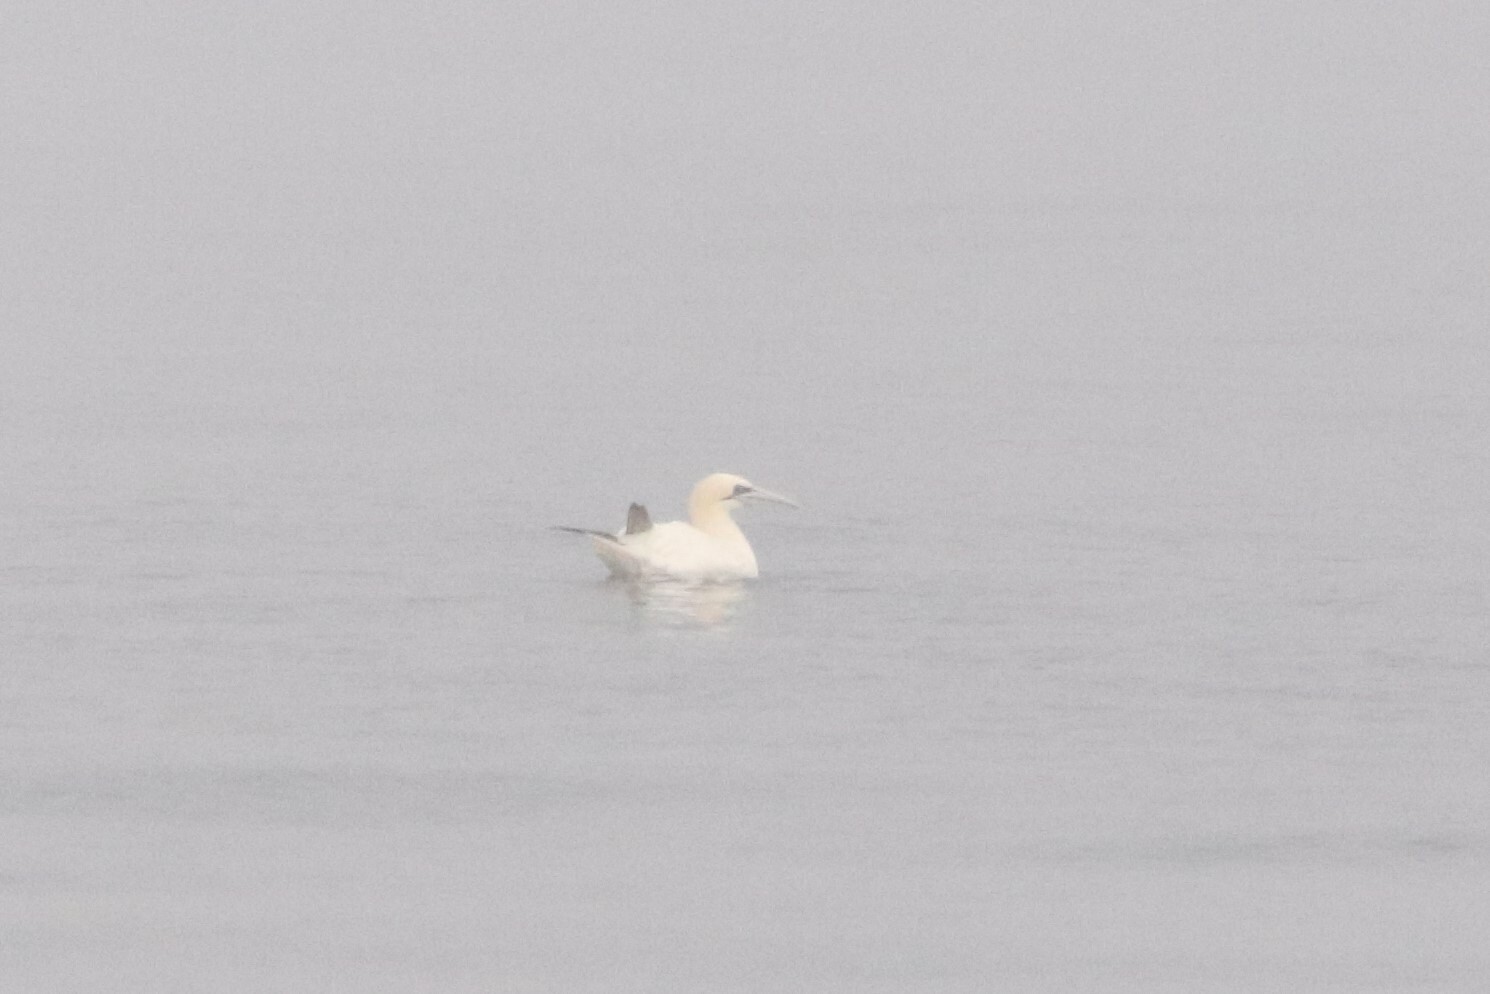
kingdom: Animalia
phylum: Chordata
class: Aves
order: Suliformes
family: Sulidae
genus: Morus
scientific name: Morus bassanus
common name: Northern gannet
